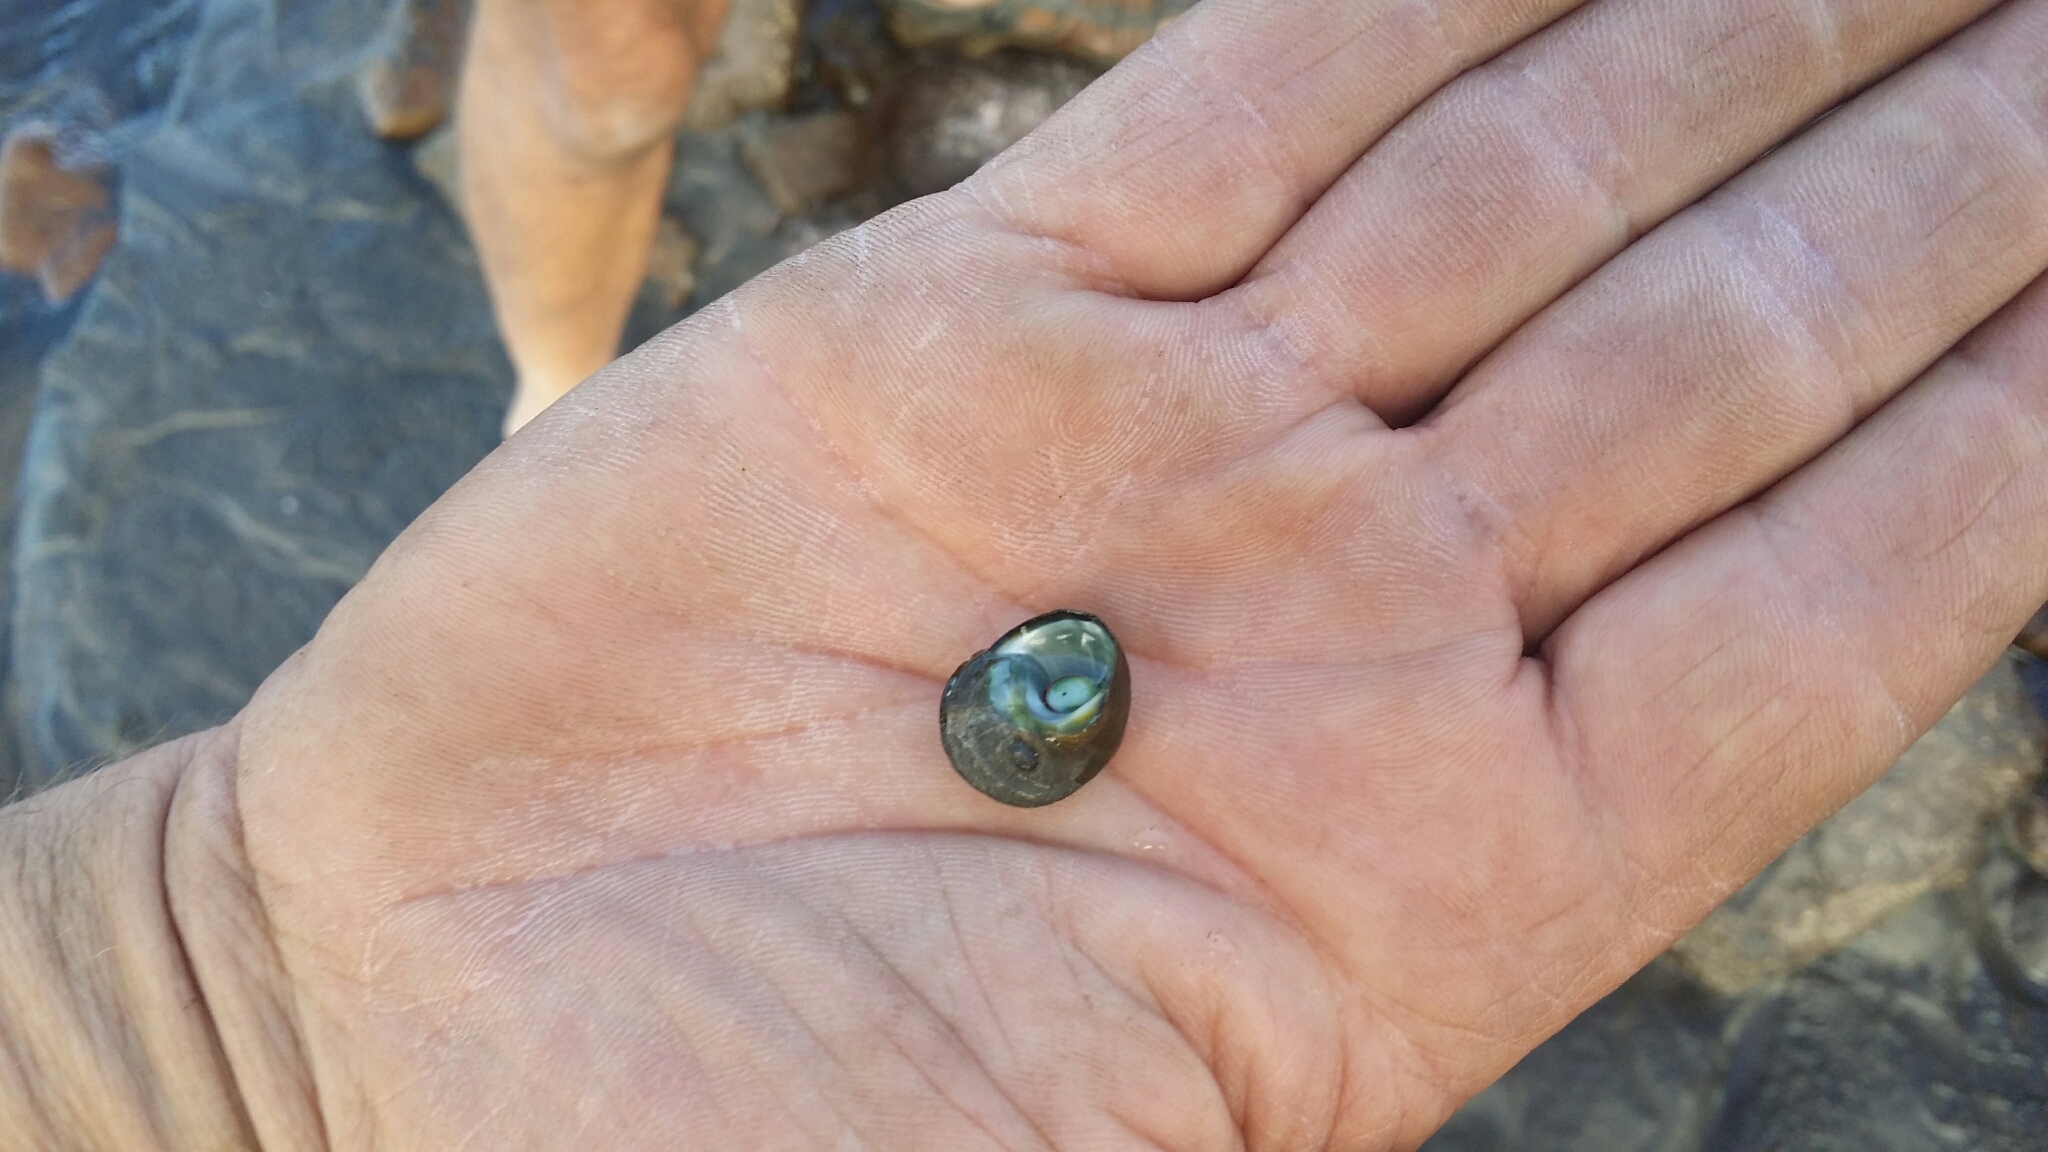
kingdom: Animalia
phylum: Mollusca
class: Gastropoda
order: Trochida
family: Turbinidae
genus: Lunella
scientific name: Lunella smaragda
